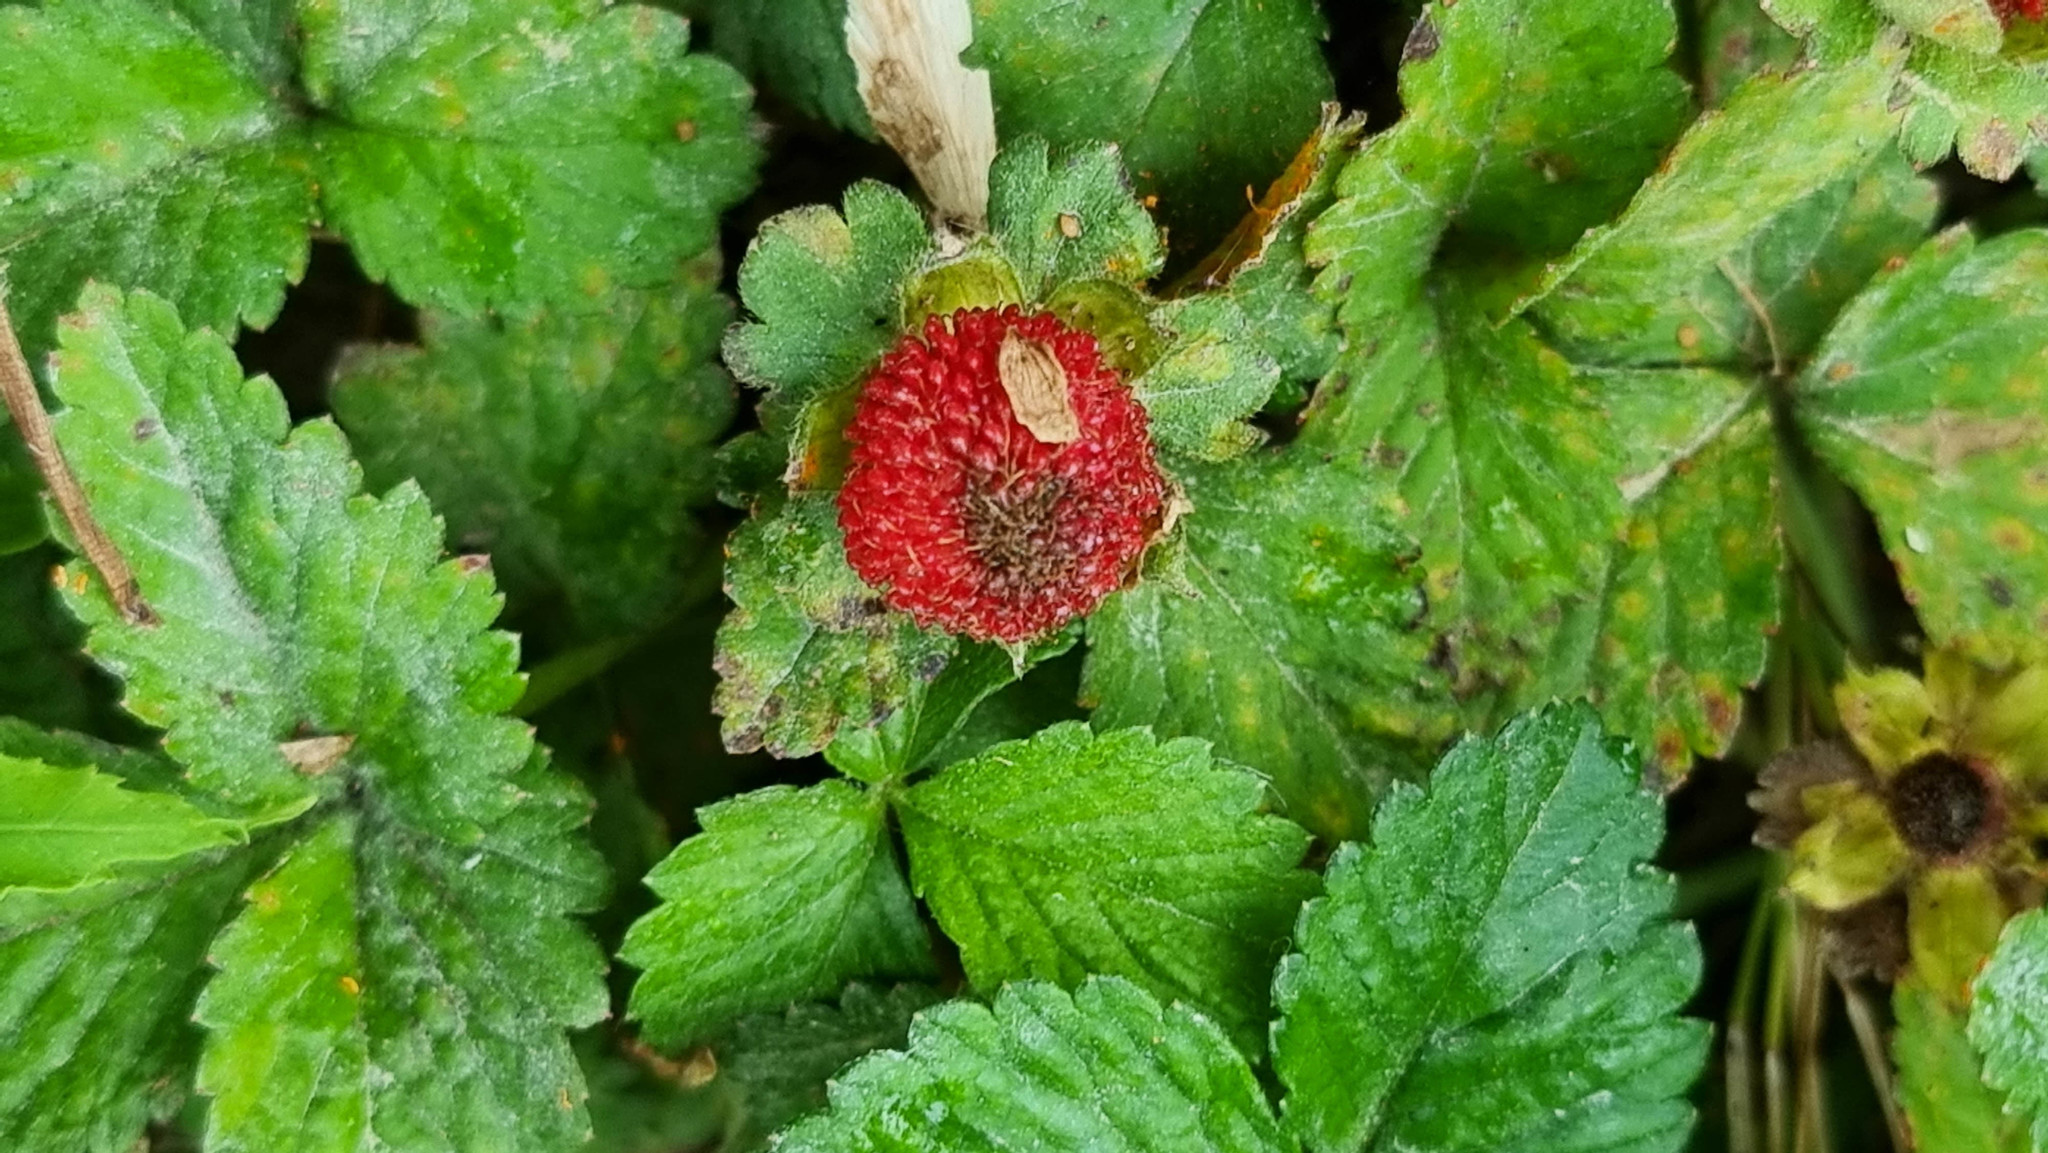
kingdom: Plantae
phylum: Tracheophyta
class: Magnoliopsida
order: Rosales
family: Rosaceae
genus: Potentilla
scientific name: Potentilla indica
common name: Yellow-flowered strawberry
